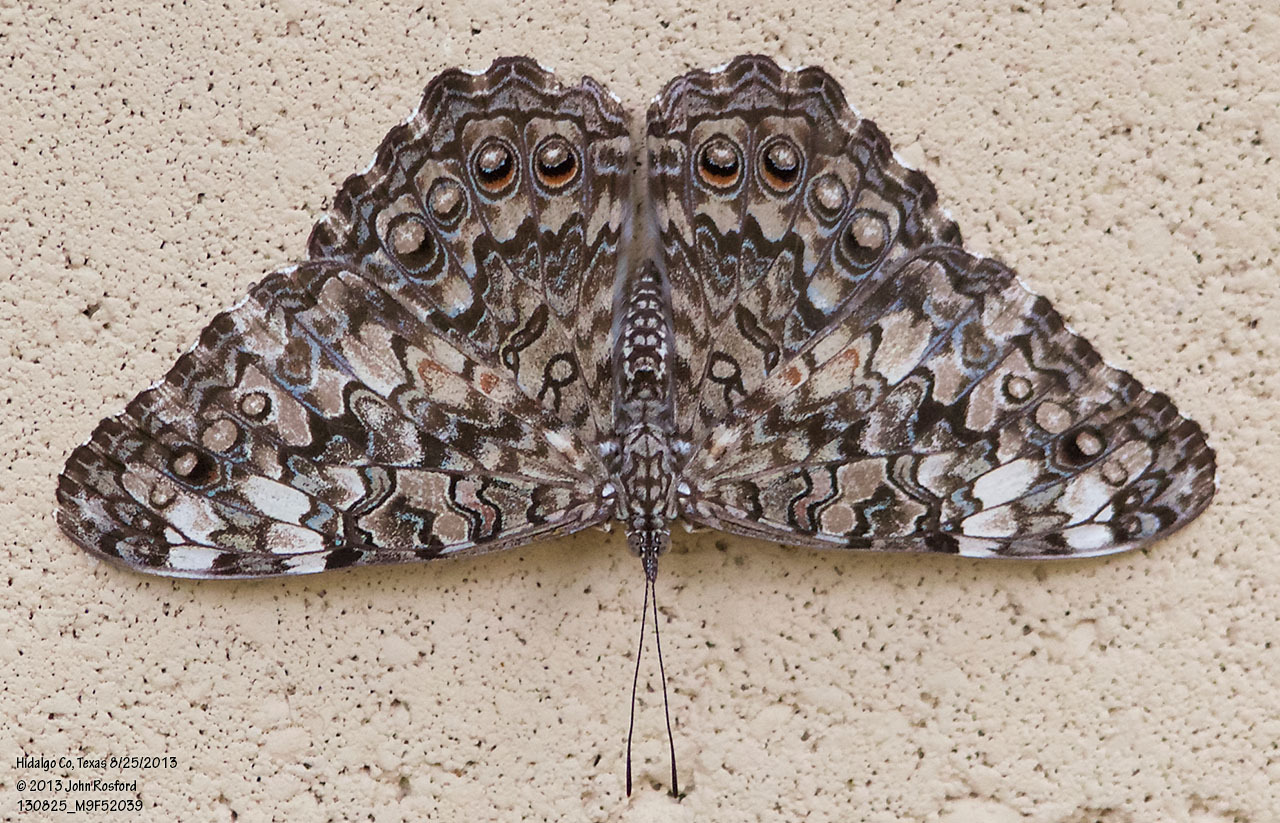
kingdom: Animalia
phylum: Arthropoda
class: Insecta
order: Lepidoptera
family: Nymphalidae
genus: Hamadryas
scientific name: Hamadryas februa
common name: Gray cracker
